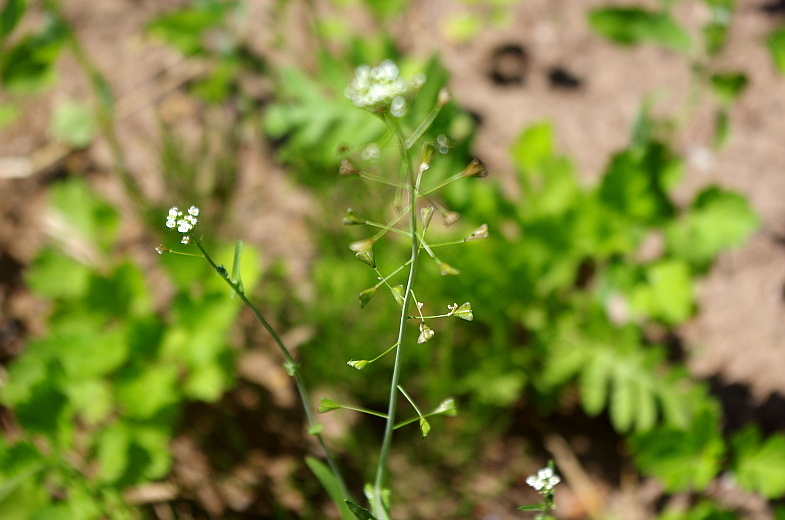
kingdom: Plantae
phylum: Tracheophyta
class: Magnoliopsida
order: Brassicales
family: Brassicaceae
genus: Capsella
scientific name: Capsella bursa-pastoris
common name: Shepherd's purse
